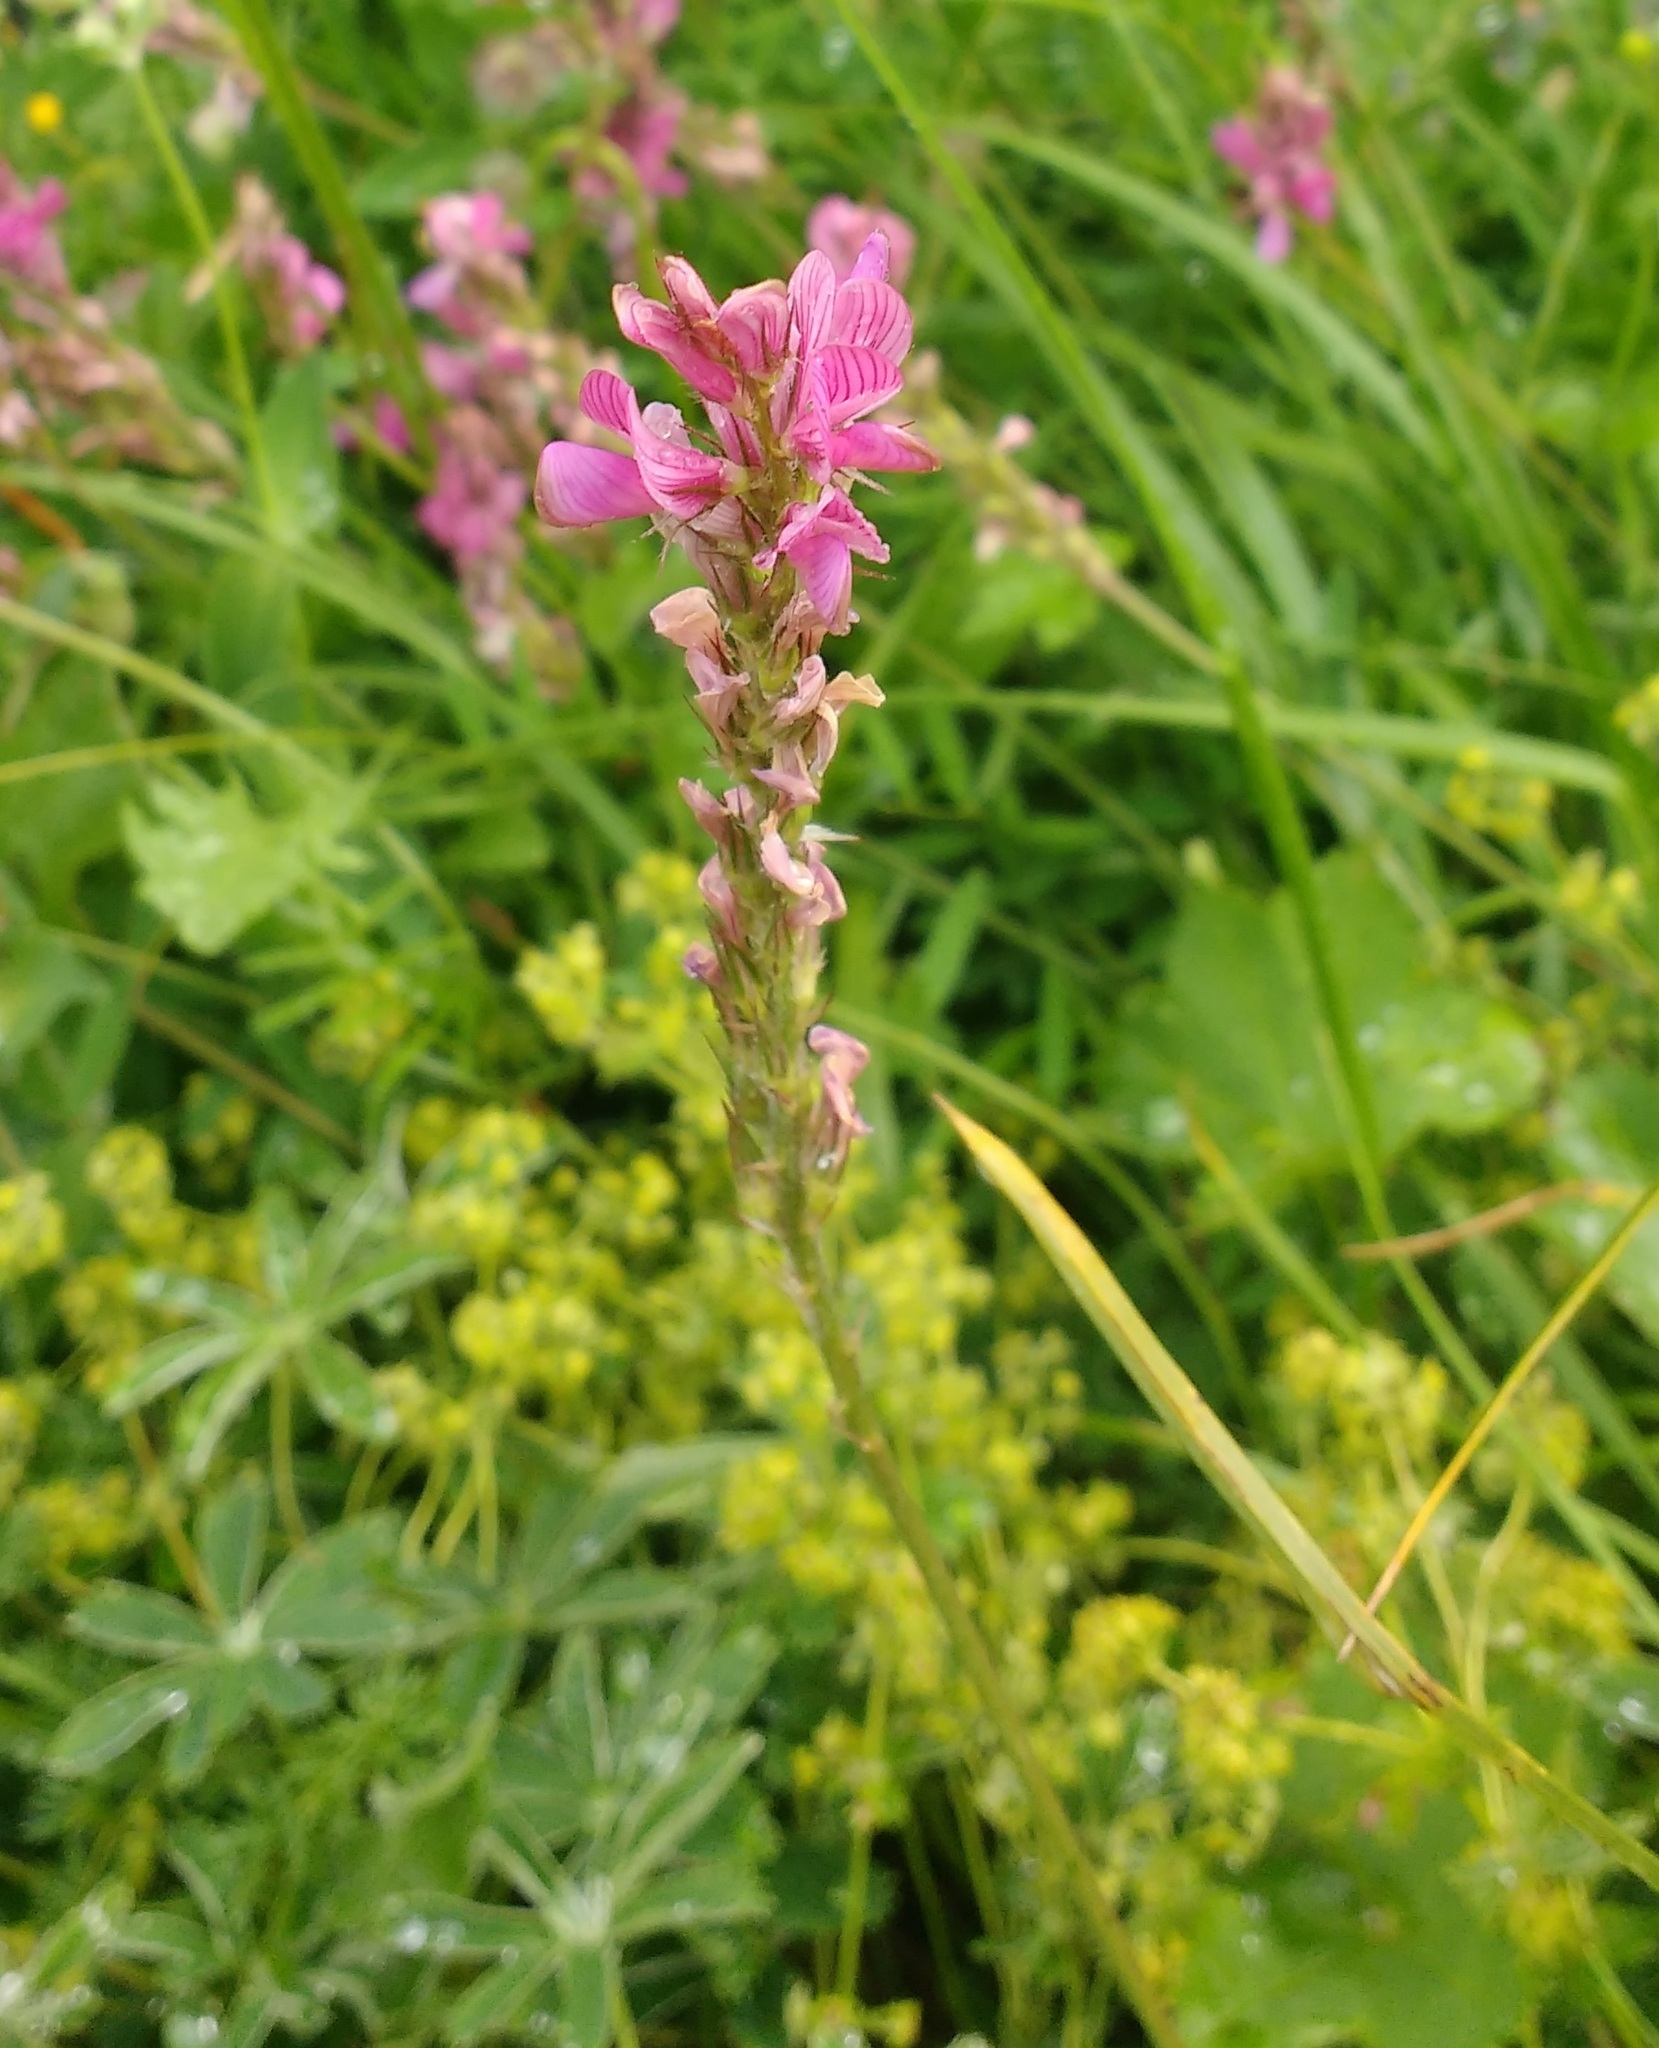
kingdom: Plantae
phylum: Tracheophyta
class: Magnoliopsida
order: Fabales
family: Fabaceae
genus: Onobrychis
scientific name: Onobrychis viciifolia
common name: Sainfoin
